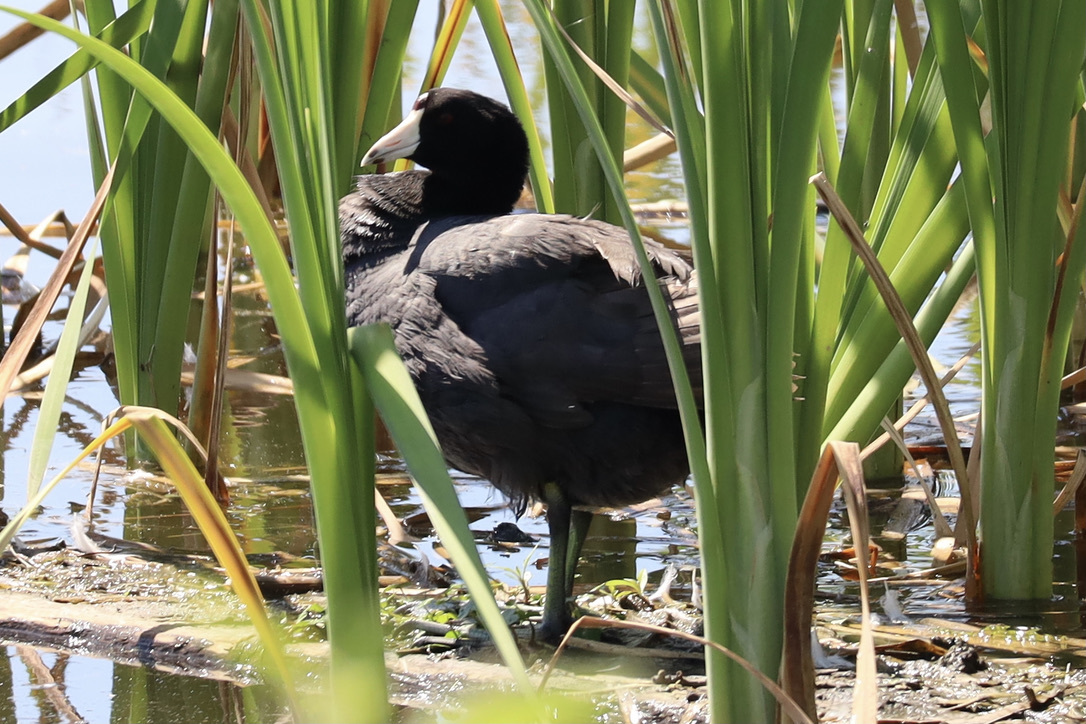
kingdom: Animalia
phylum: Chordata
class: Aves
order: Gruiformes
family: Rallidae
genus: Fulica
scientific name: Fulica americana
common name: American coot
